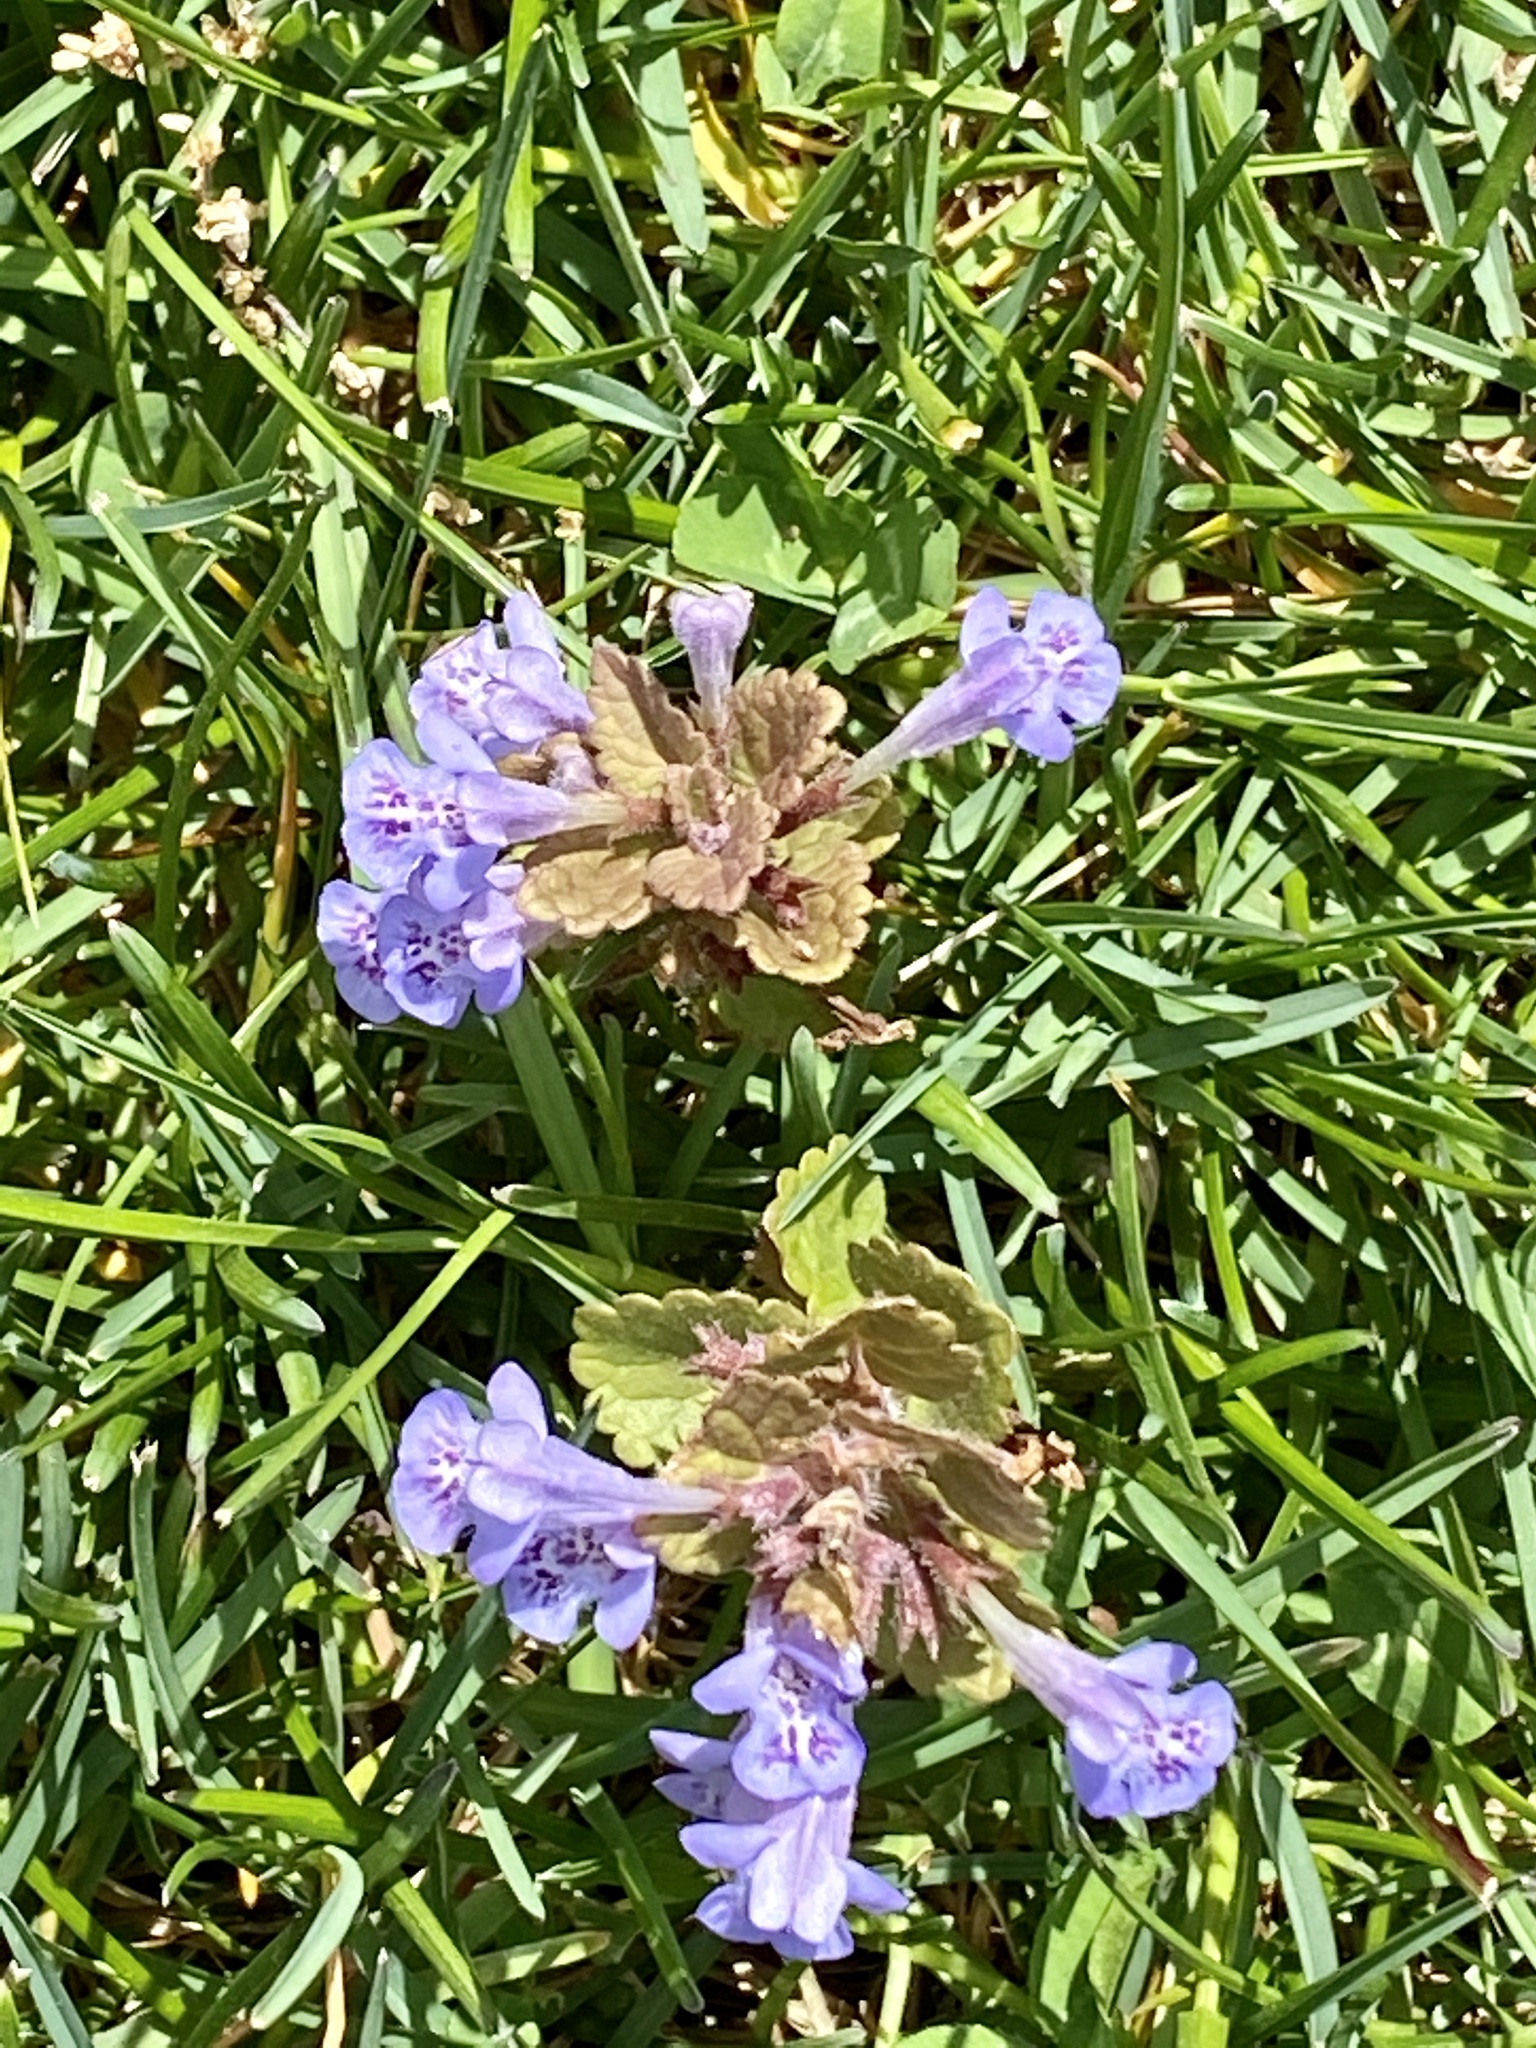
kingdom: Plantae
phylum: Tracheophyta
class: Magnoliopsida
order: Lamiales
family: Lamiaceae
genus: Glechoma
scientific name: Glechoma hederacea
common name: Ground ivy
